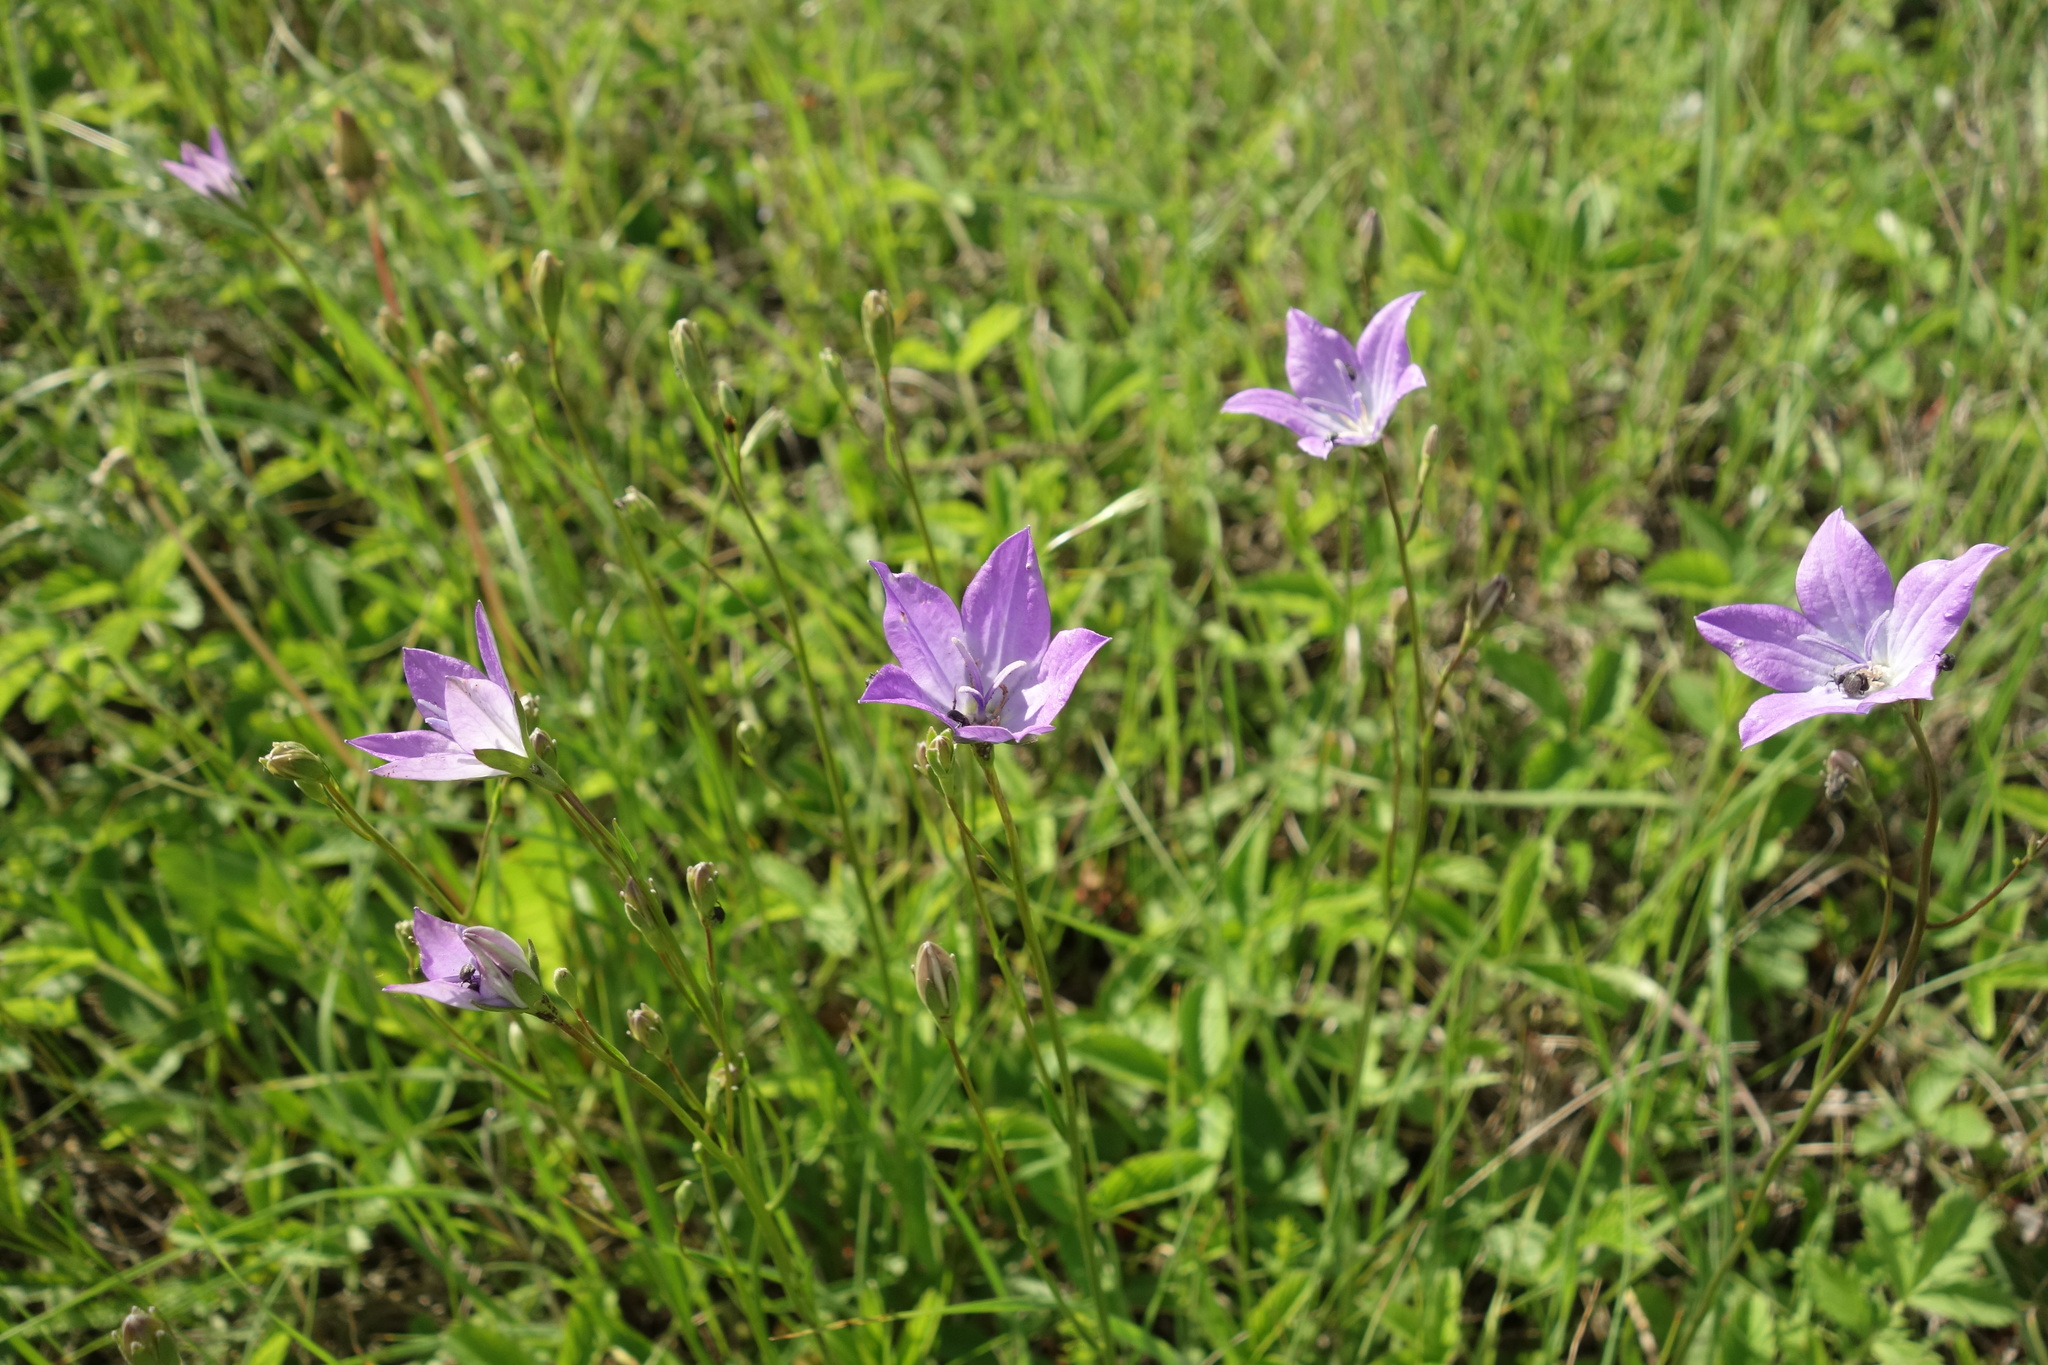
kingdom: Plantae
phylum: Tracheophyta
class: Magnoliopsida
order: Asterales
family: Campanulaceae
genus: Campanula
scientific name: Campanula stevenii
